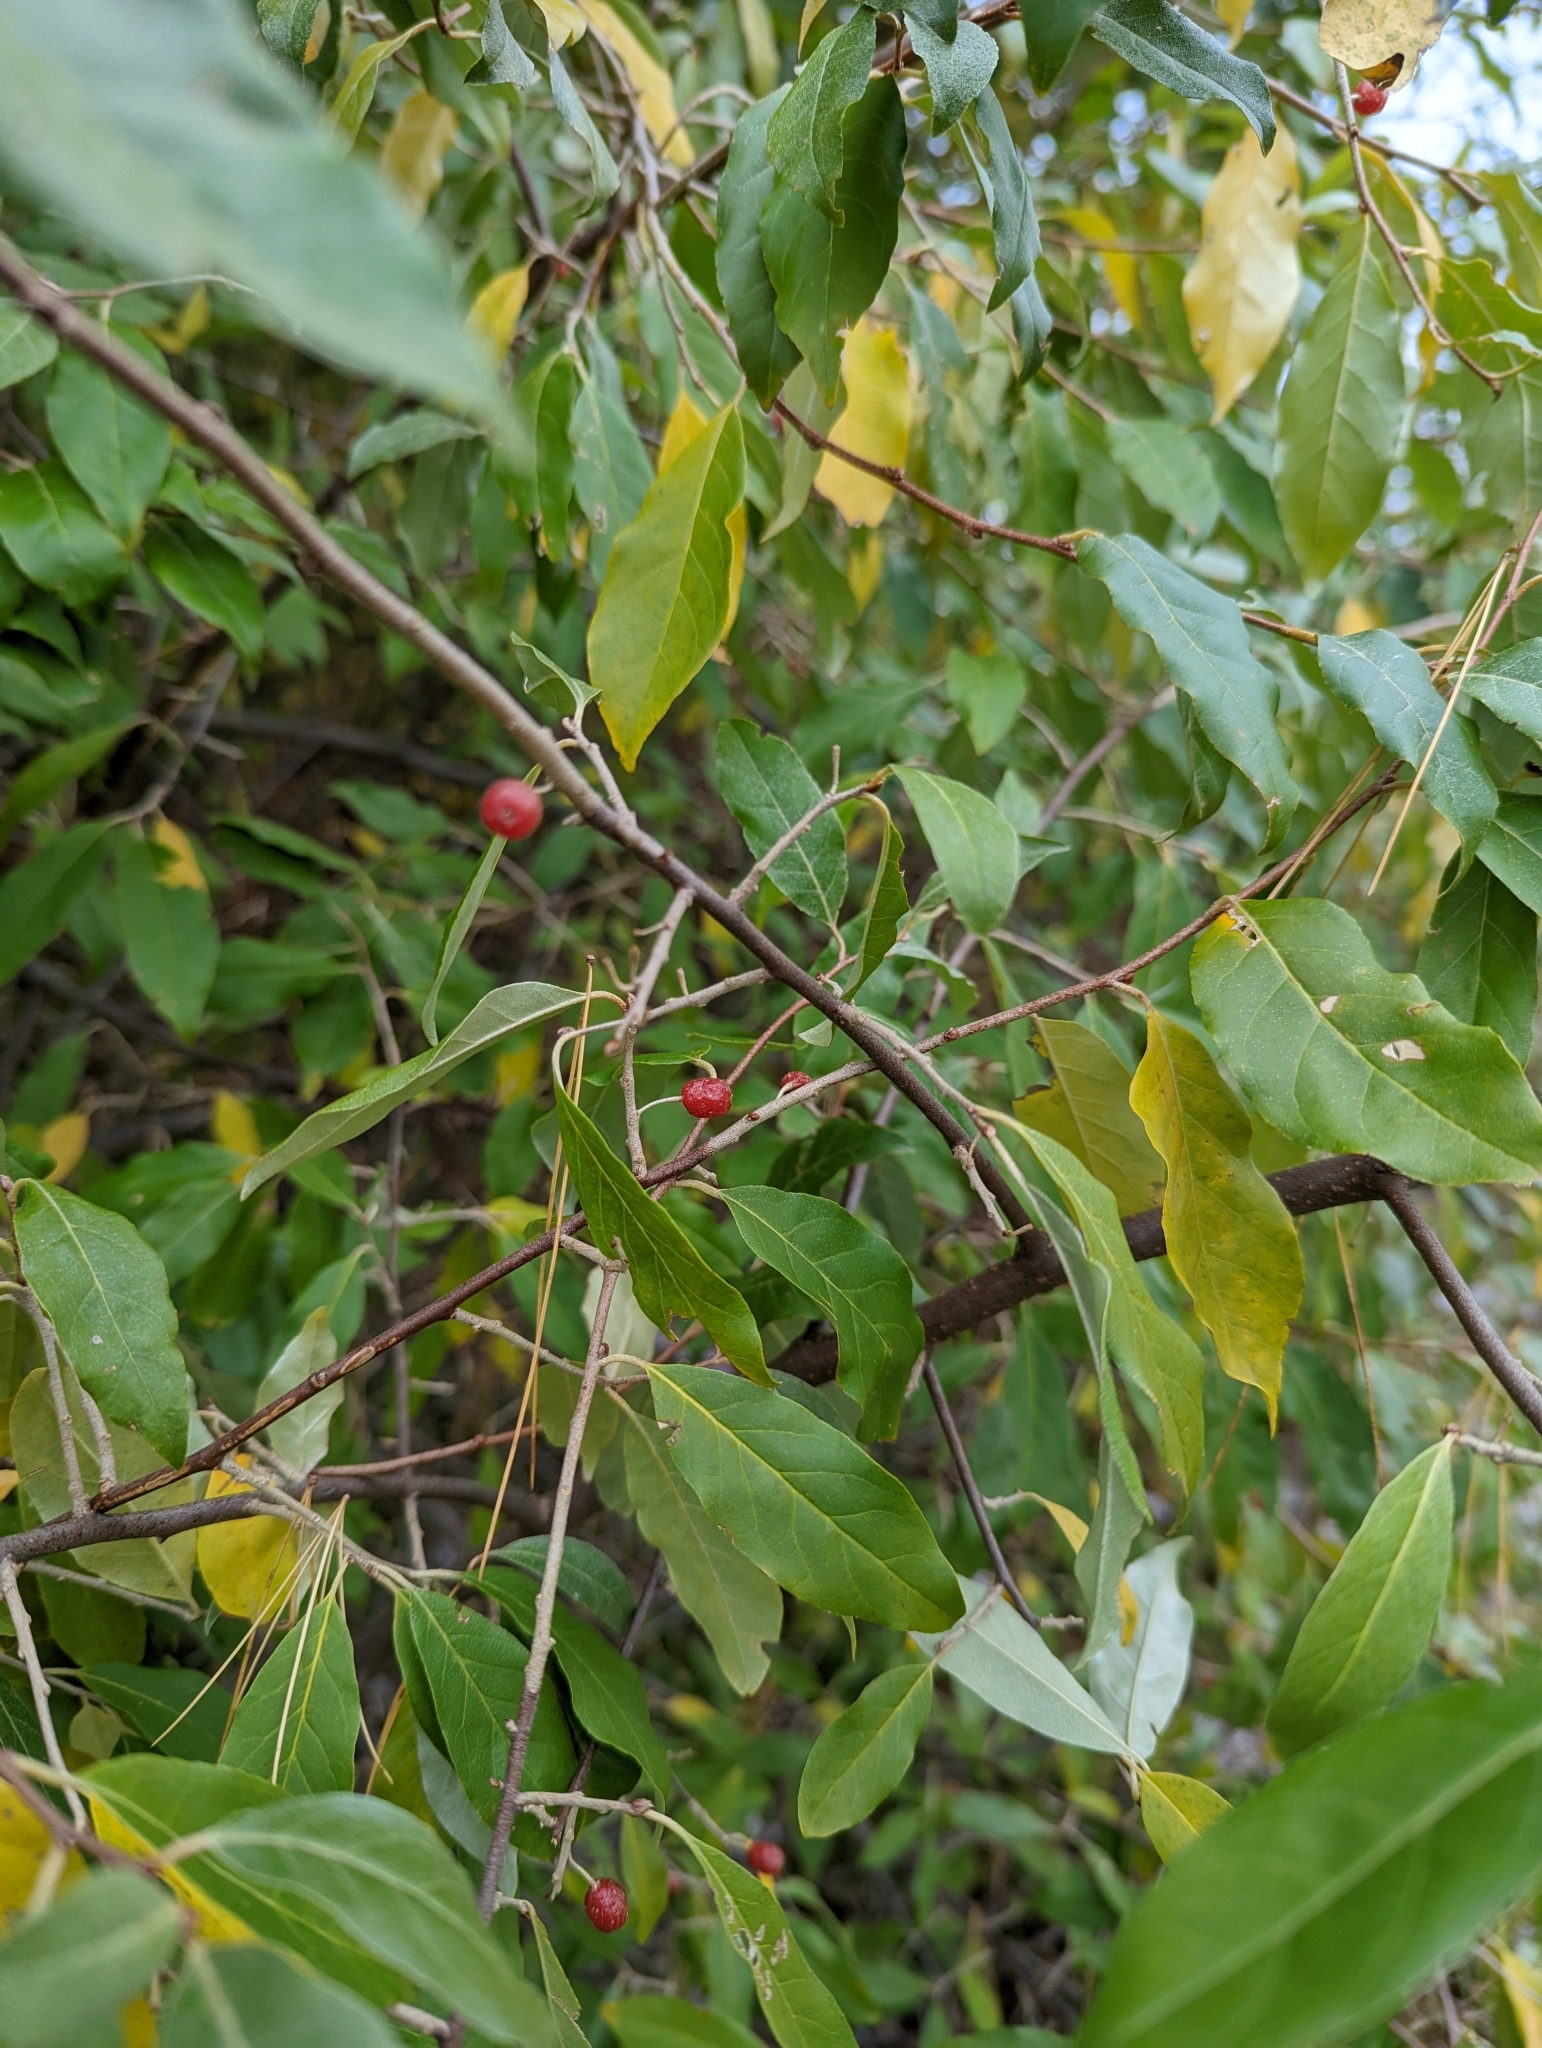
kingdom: Plantae
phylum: Tracheophyta
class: Magnoliopsida
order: Rosales
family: Elaeagnaceae
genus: Elaeagnus
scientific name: Elaeagnus umbellata
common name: Autumn olive
